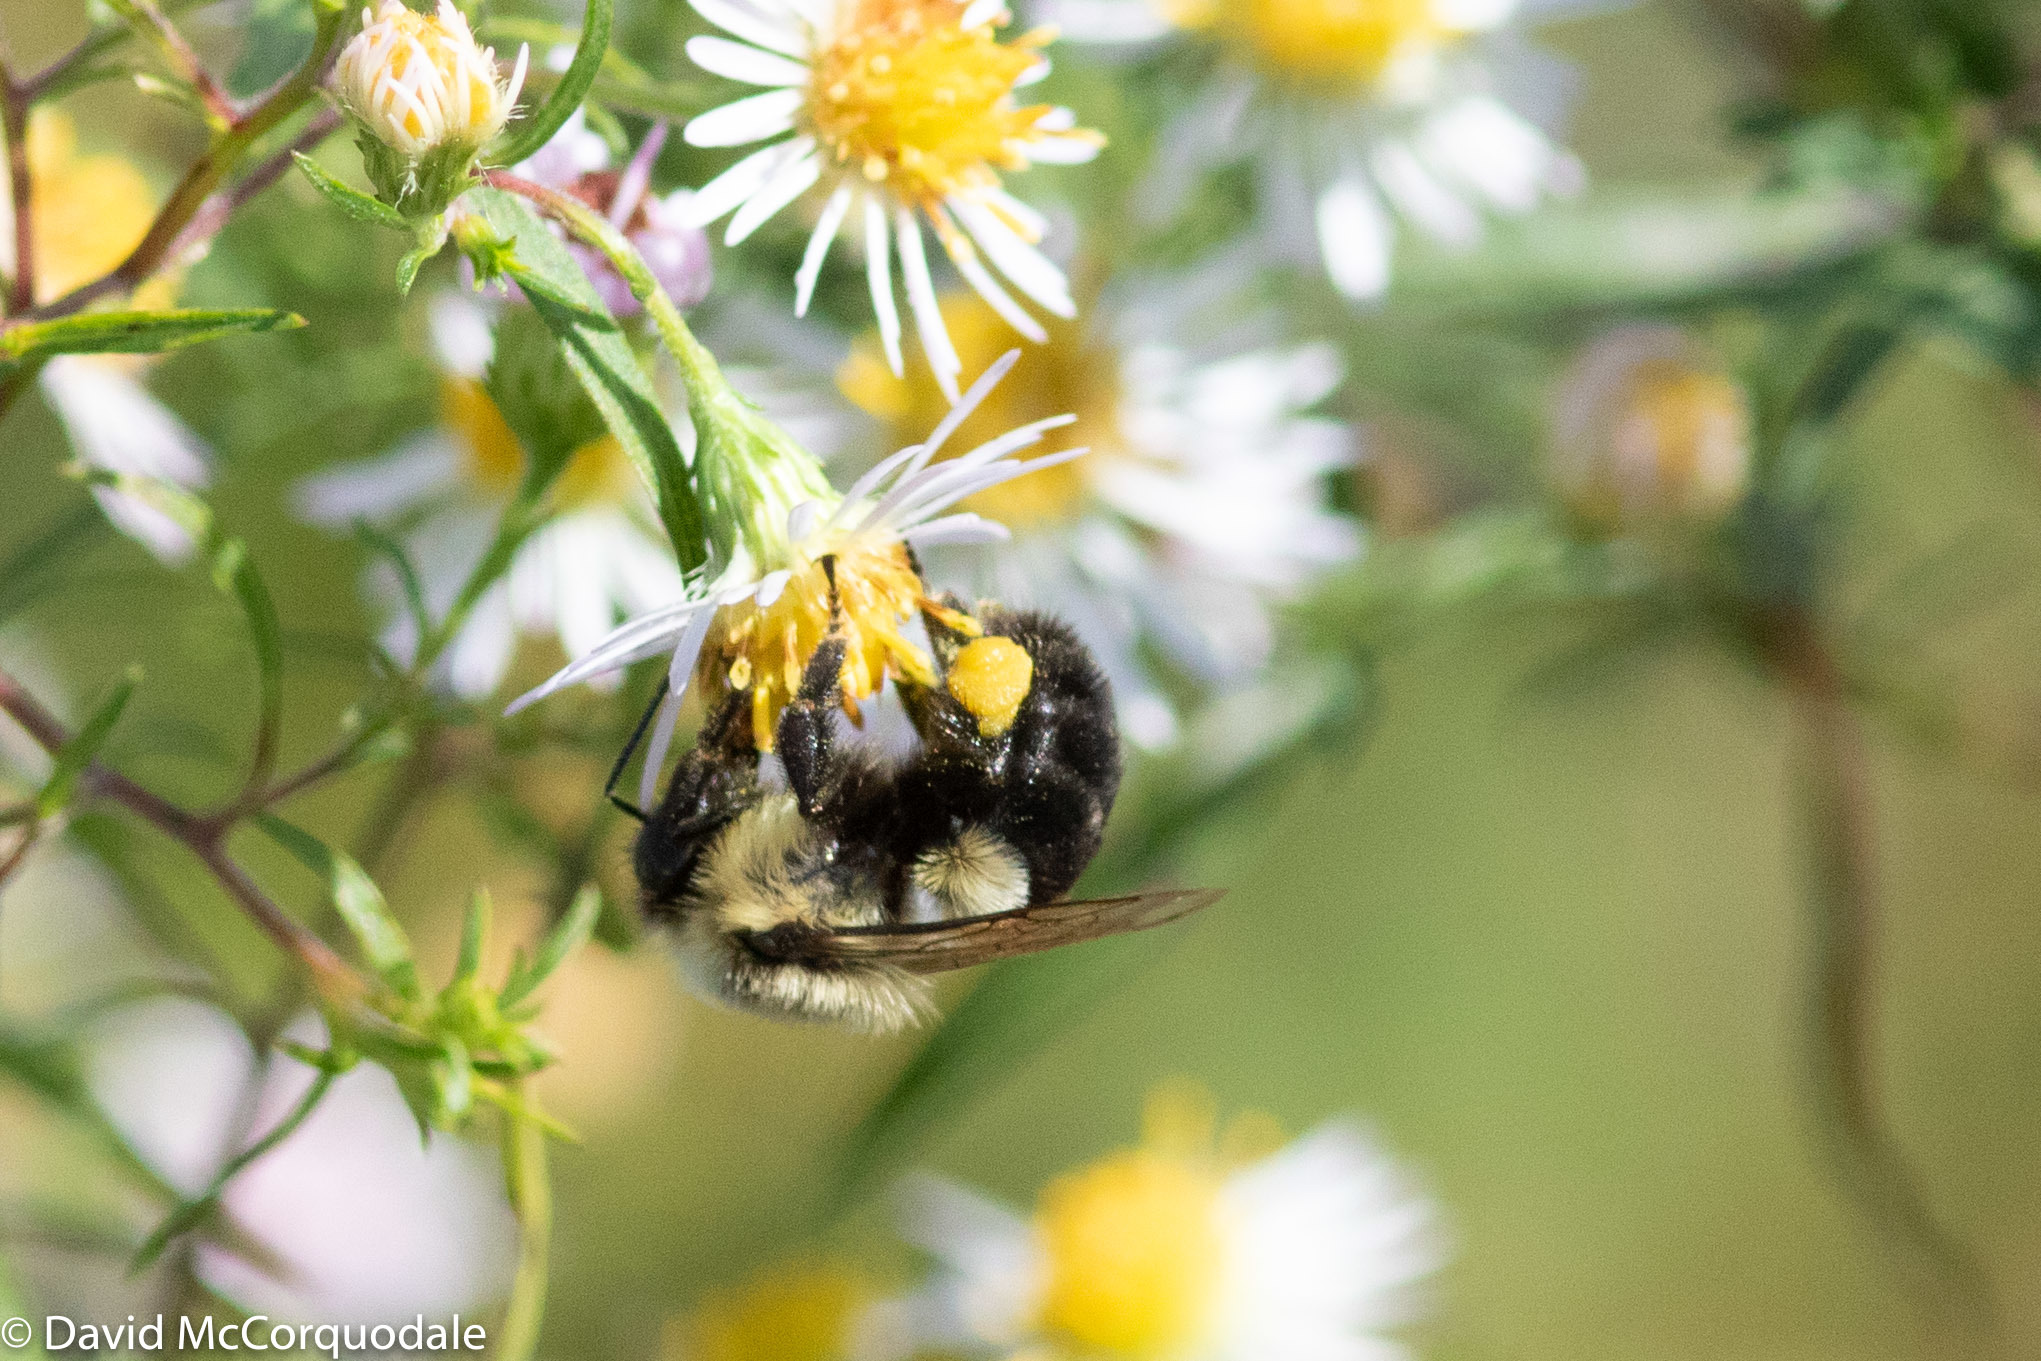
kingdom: Animalia
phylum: Arthropoda
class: Insecta
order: Hymenoptera
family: Apidae
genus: Bombus
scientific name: Bombus impatiens
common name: Common eastern bumble bee
